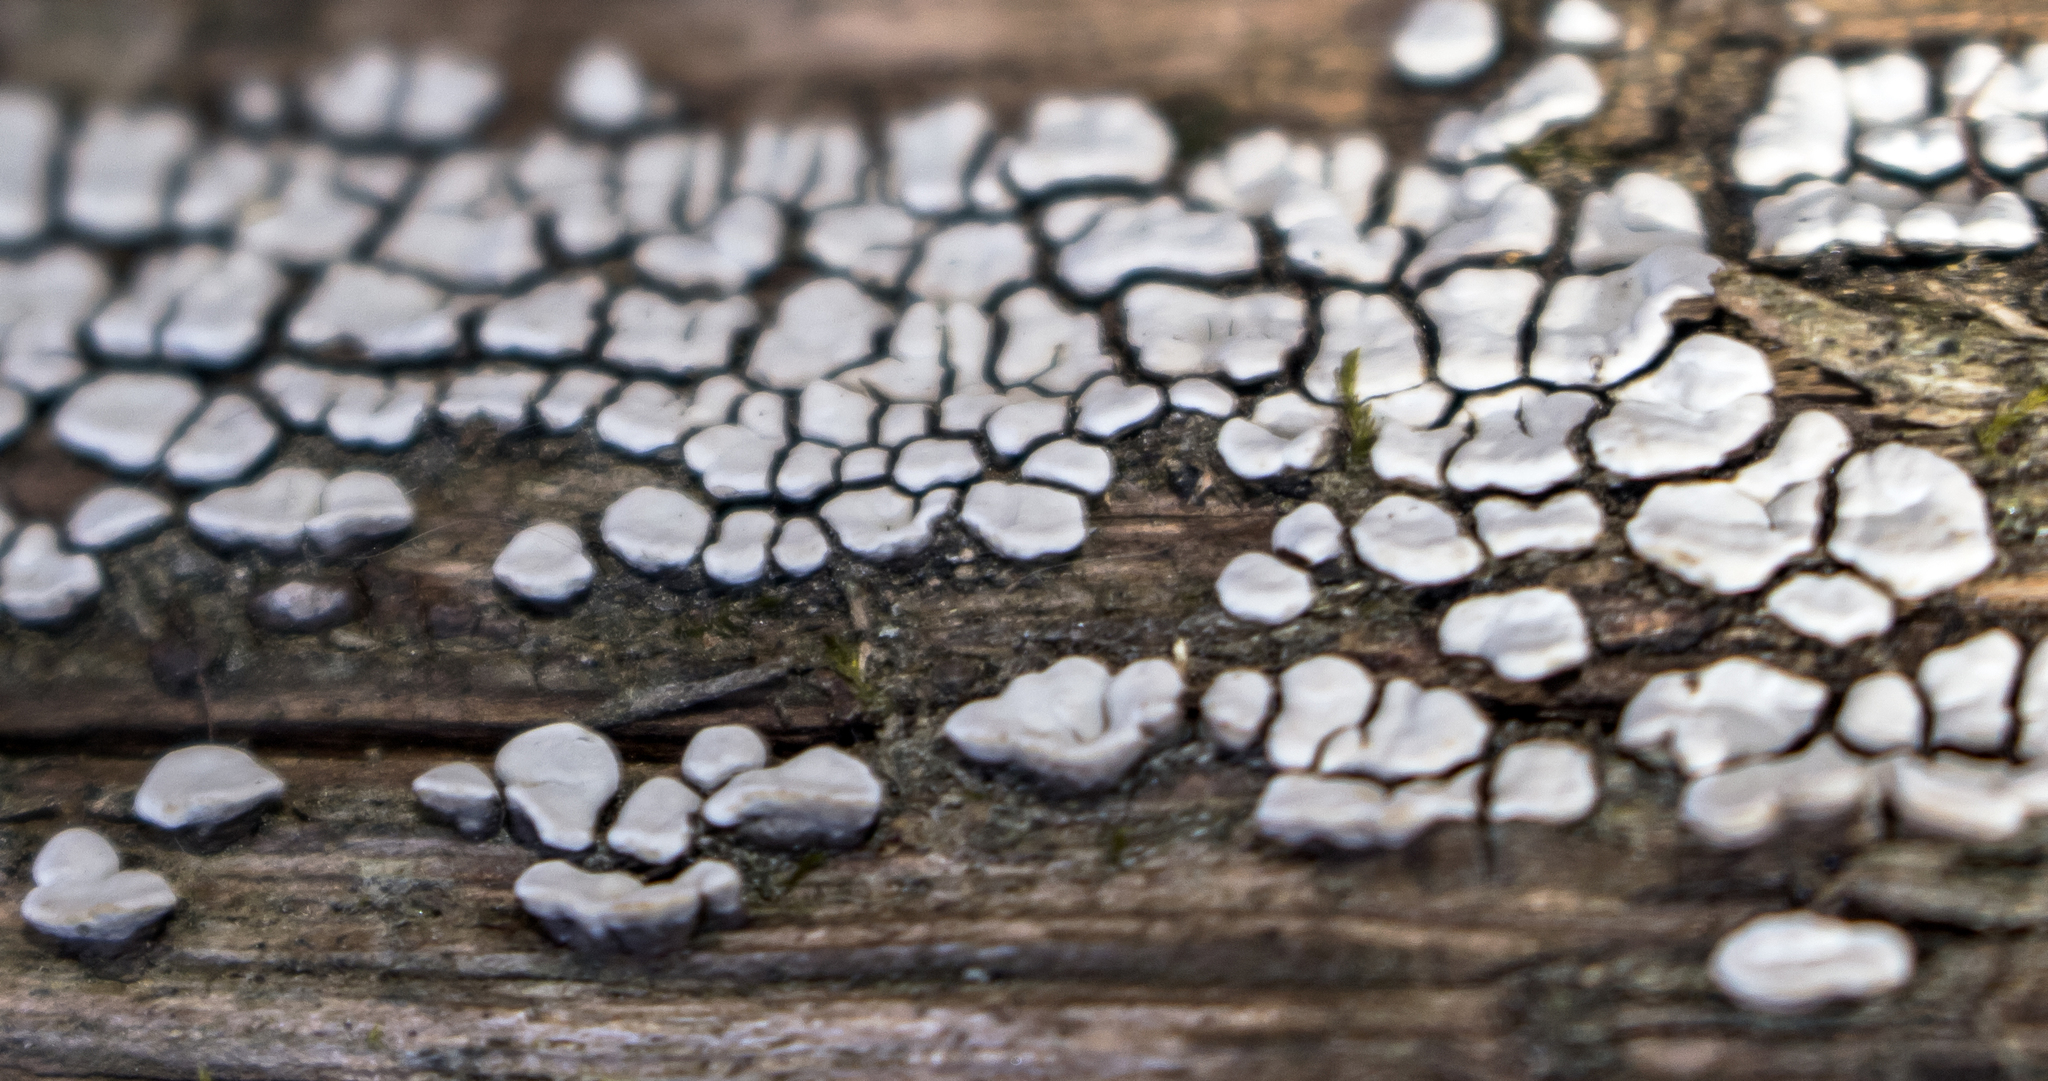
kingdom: Fungi
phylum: Basidiomycota
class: Agaricomycetes
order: Russulales
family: Stereaceae
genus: Xylobolus
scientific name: Xylobolus frustulatus
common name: Ceramic parchment
